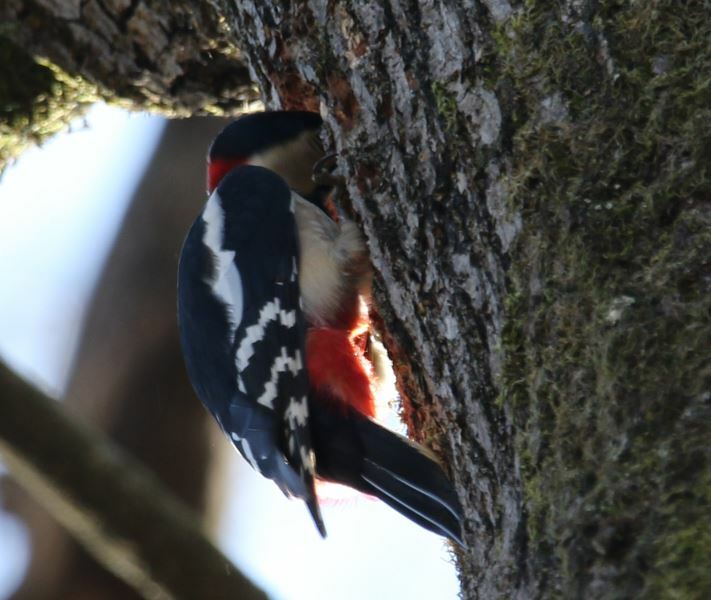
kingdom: Animalia
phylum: Chordata
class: Aves
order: Piciformes
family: Picidae
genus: Dendrocopos
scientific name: Dendrocopos major
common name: Great spotted woodpecker
